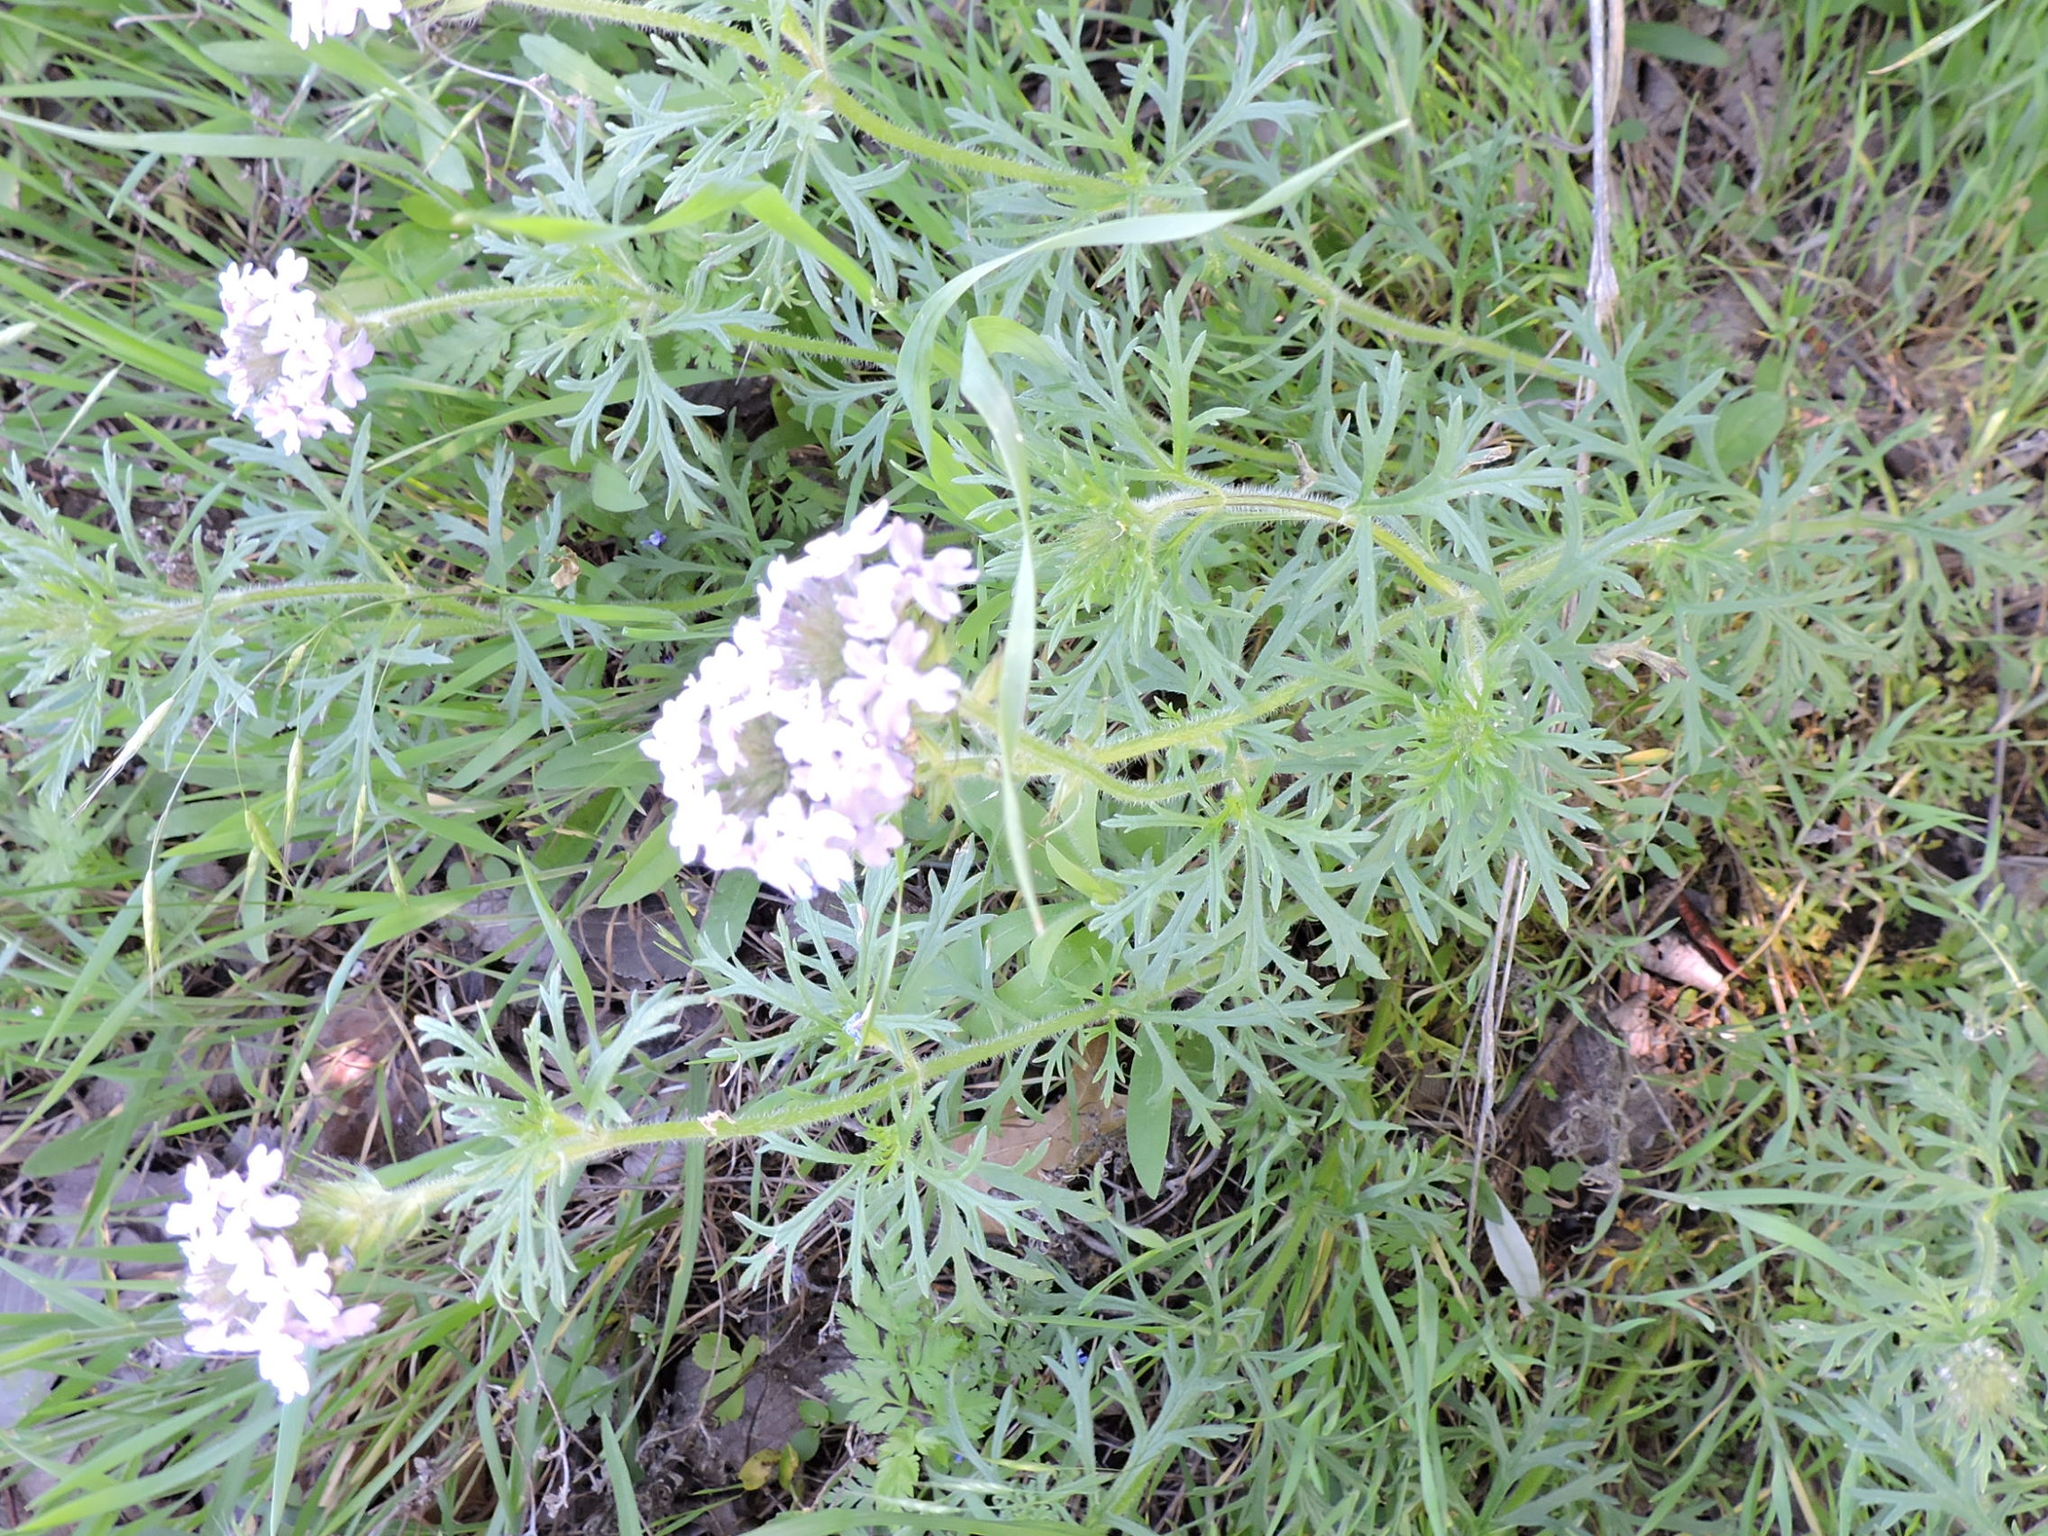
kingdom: Plantae
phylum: Tracheophyta
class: Magnoliopsida
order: Lamiales
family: Verbenaceae
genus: Verbena
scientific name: Verbena bipinnatifida
